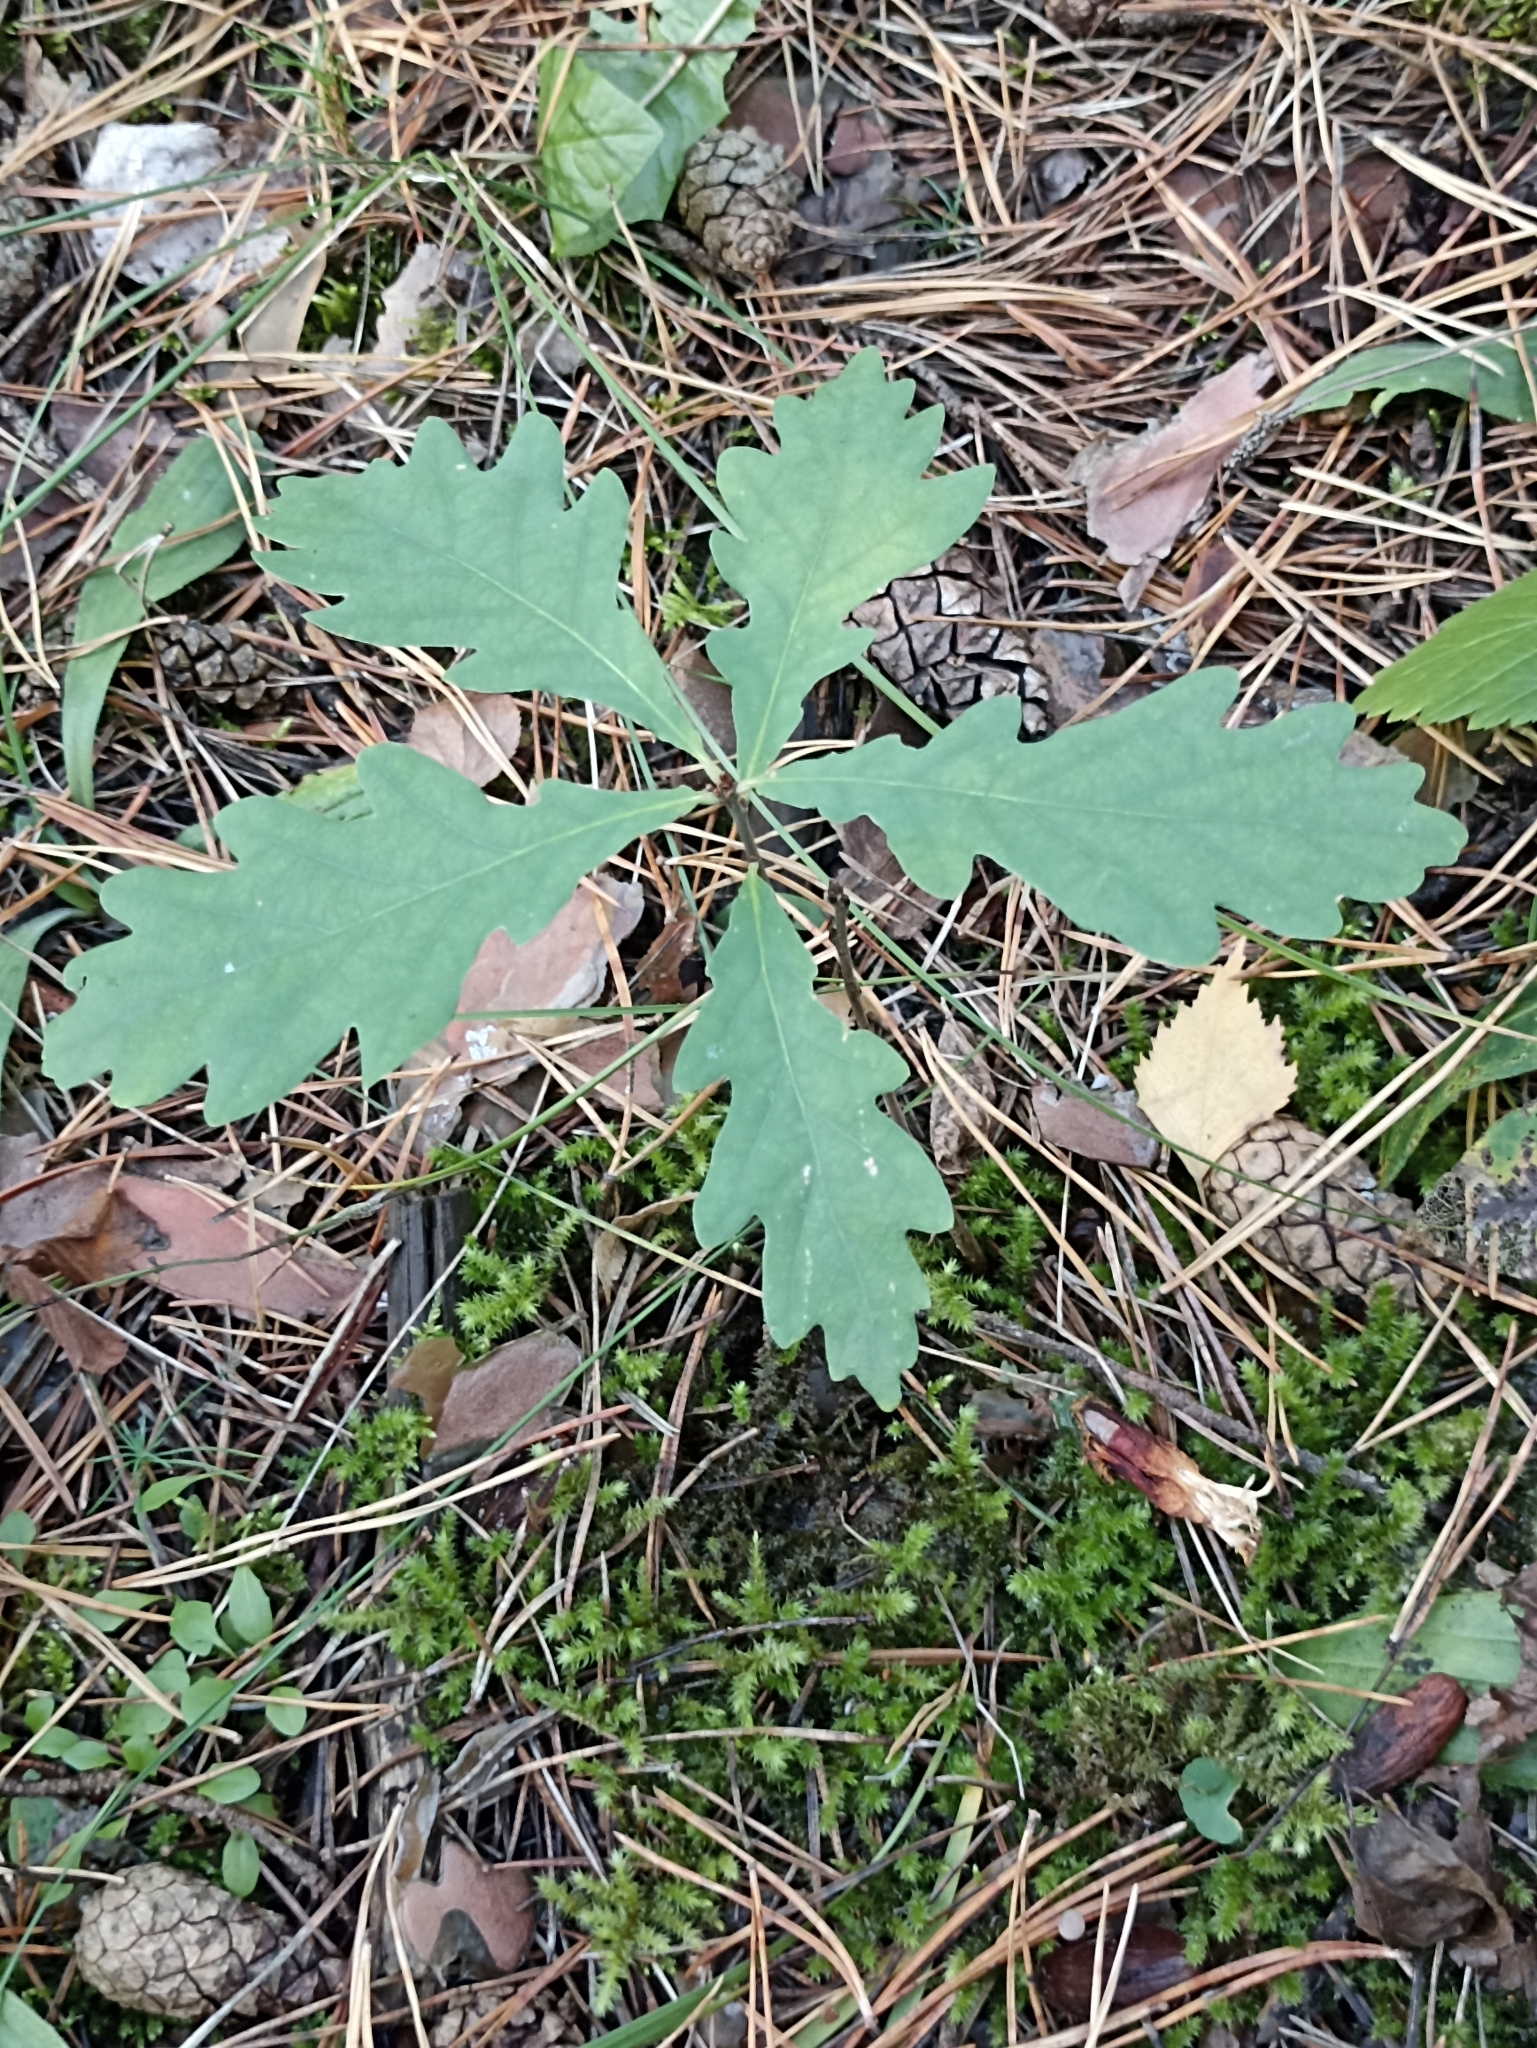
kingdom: Plantae
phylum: Tracheophyta
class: Magnoliopsida
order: Fagales
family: Fagaceae
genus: Quercus
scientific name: Quercus robur
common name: Pedunculate oak
